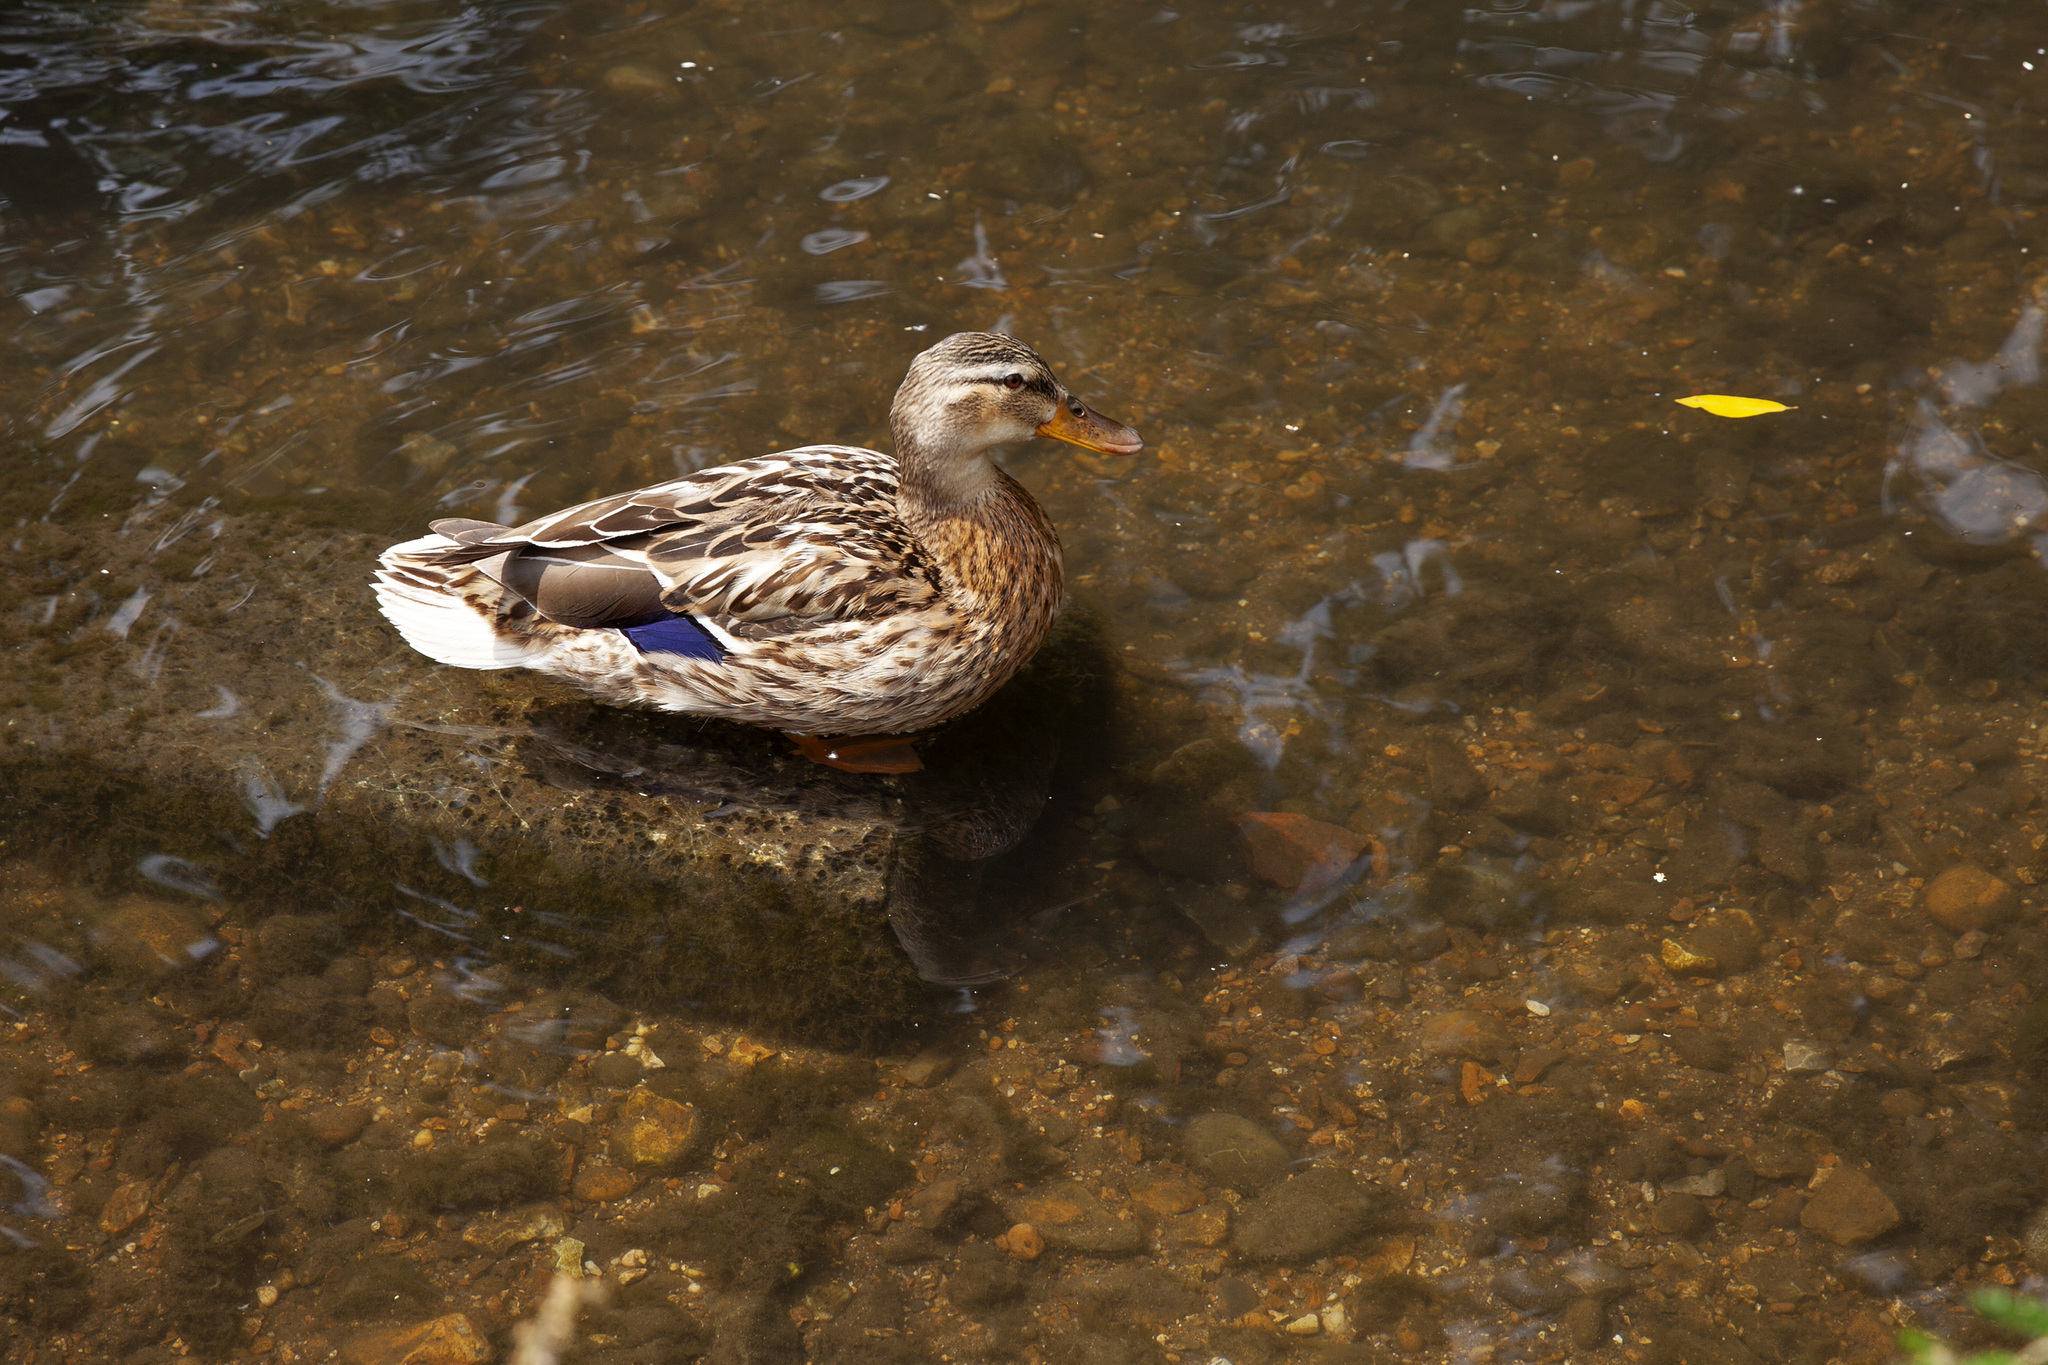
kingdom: Animalia
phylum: Chordata
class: Aves
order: Anseriformes
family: Anatidae
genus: Anas
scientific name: Anas platyrhynchos
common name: Mallard
